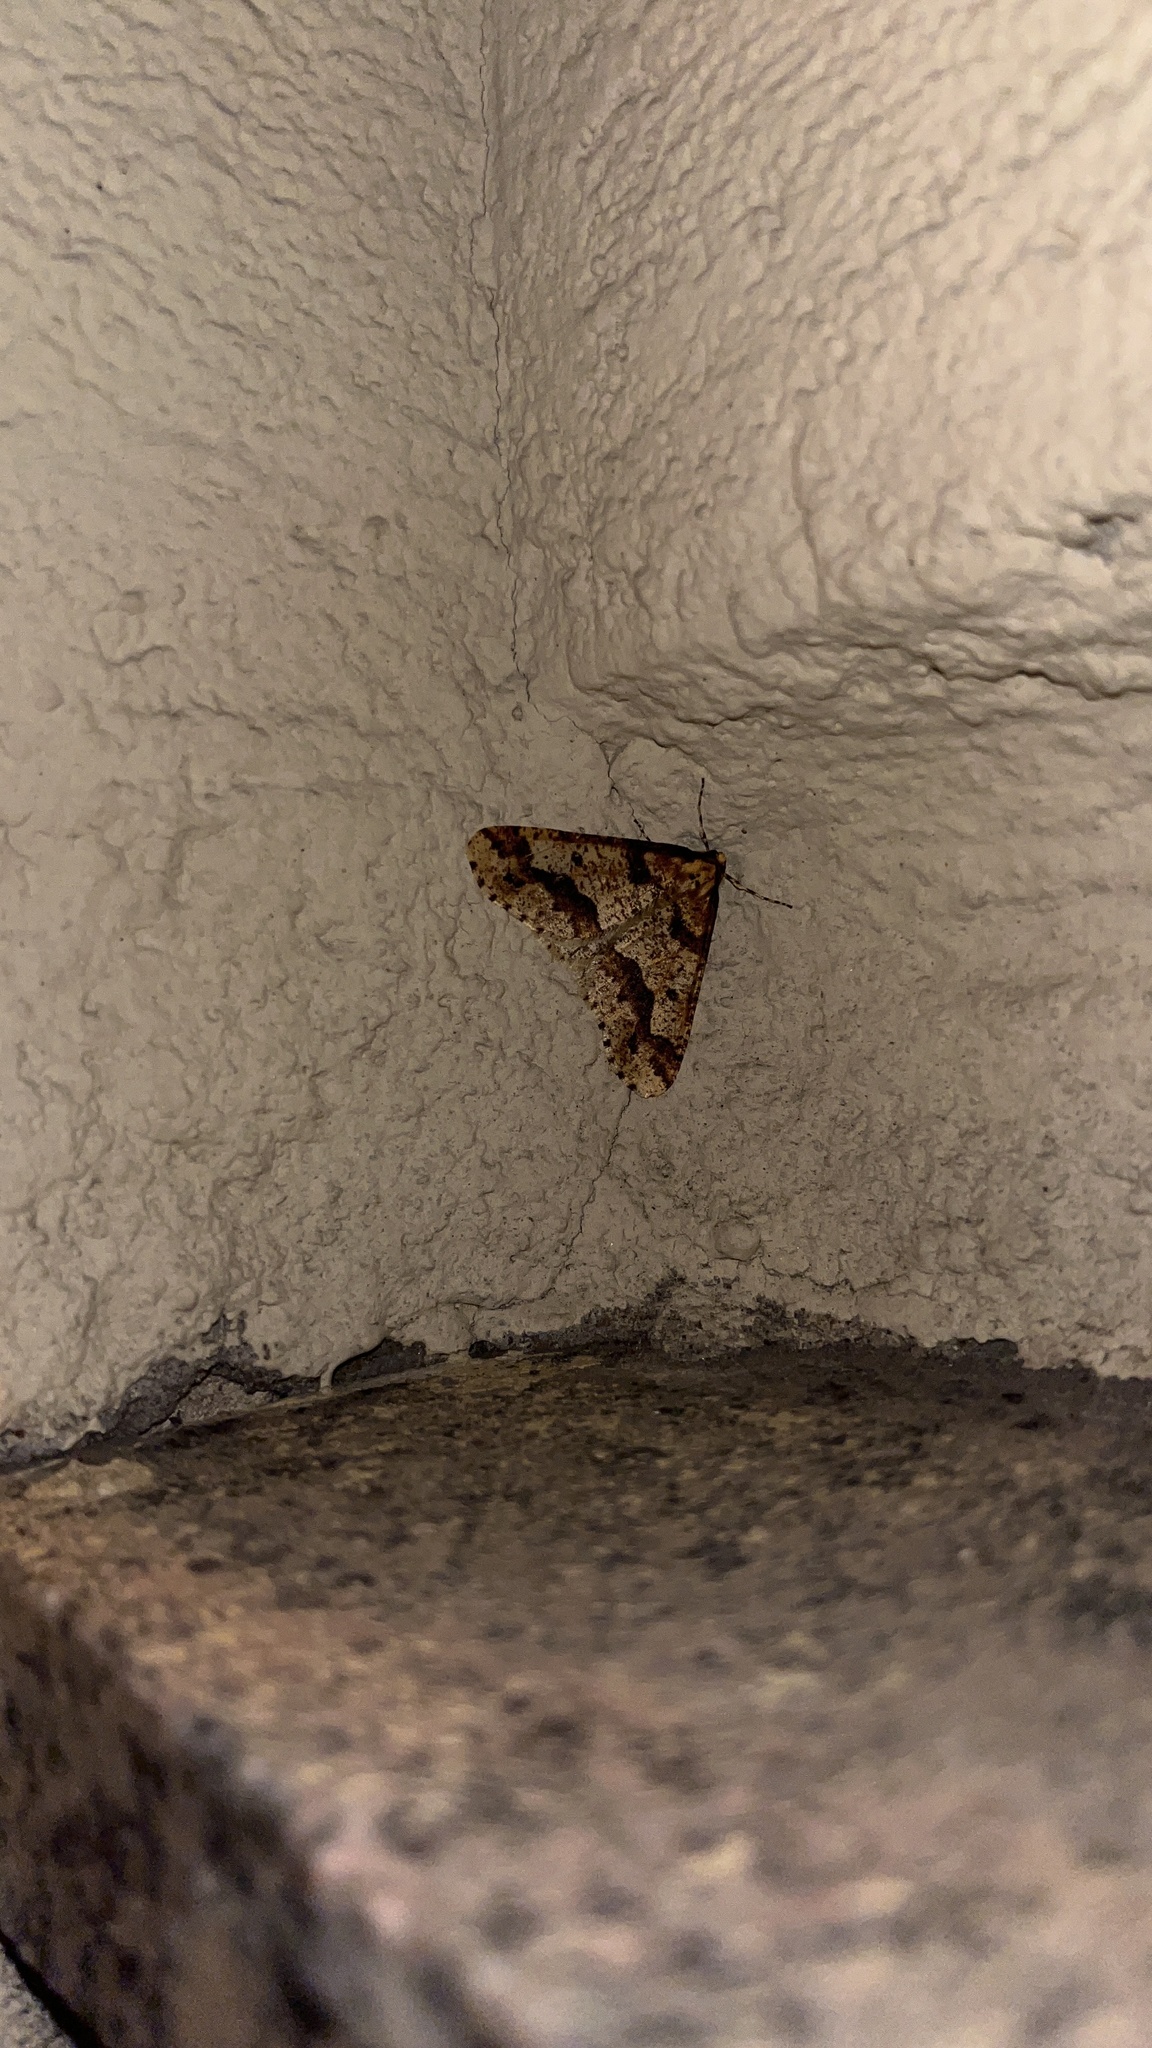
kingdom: Animalia
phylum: Arthropoda
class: Insecta
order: Lepidoptera
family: Geometridae
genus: Erannis
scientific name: Erannis defoliaria
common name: Mottled umber
